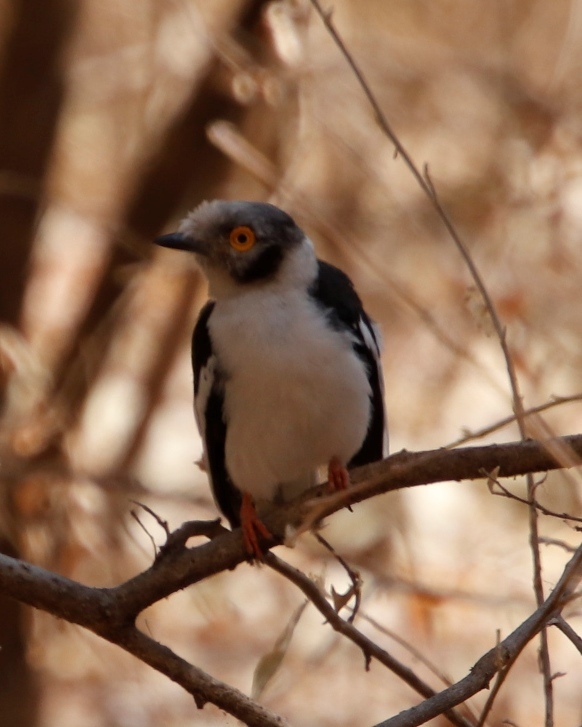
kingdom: Animalia
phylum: Chordata
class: Aves
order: Passeriformes
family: Prionopidae
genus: Prionops
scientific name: Prionops plumatus
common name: White-crested helmetshrike
